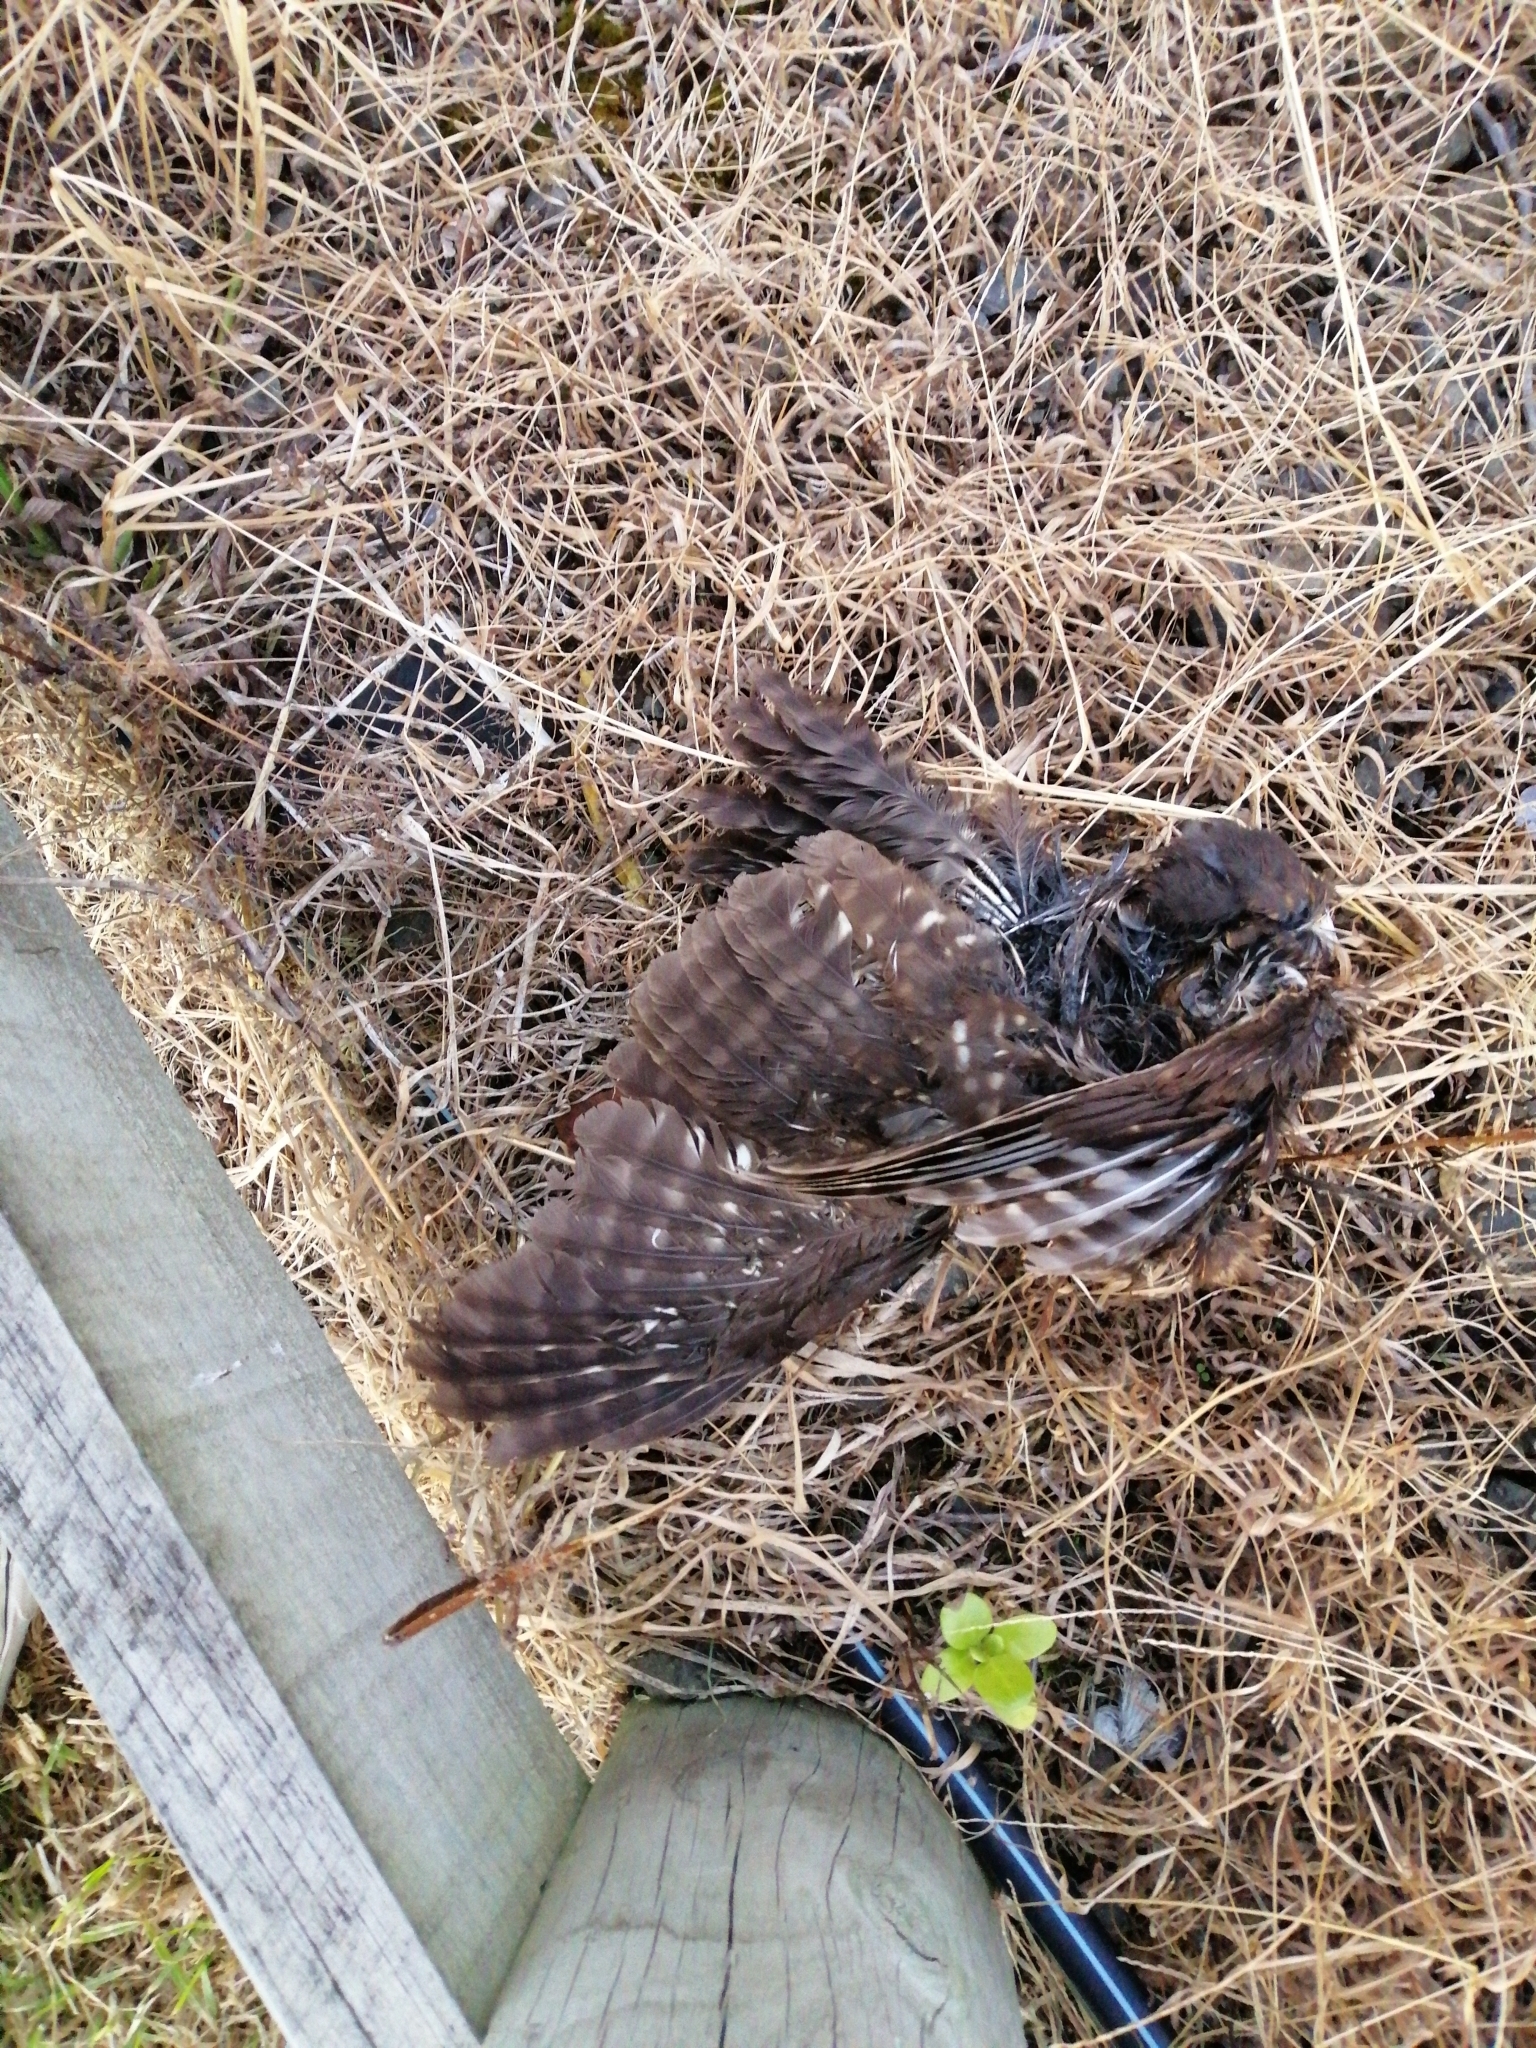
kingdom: Animalia
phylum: Chordata
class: Aves
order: Strigiformes
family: Strigidae
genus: Ninox
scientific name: Ninox novaeseelandiae
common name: Morepork
